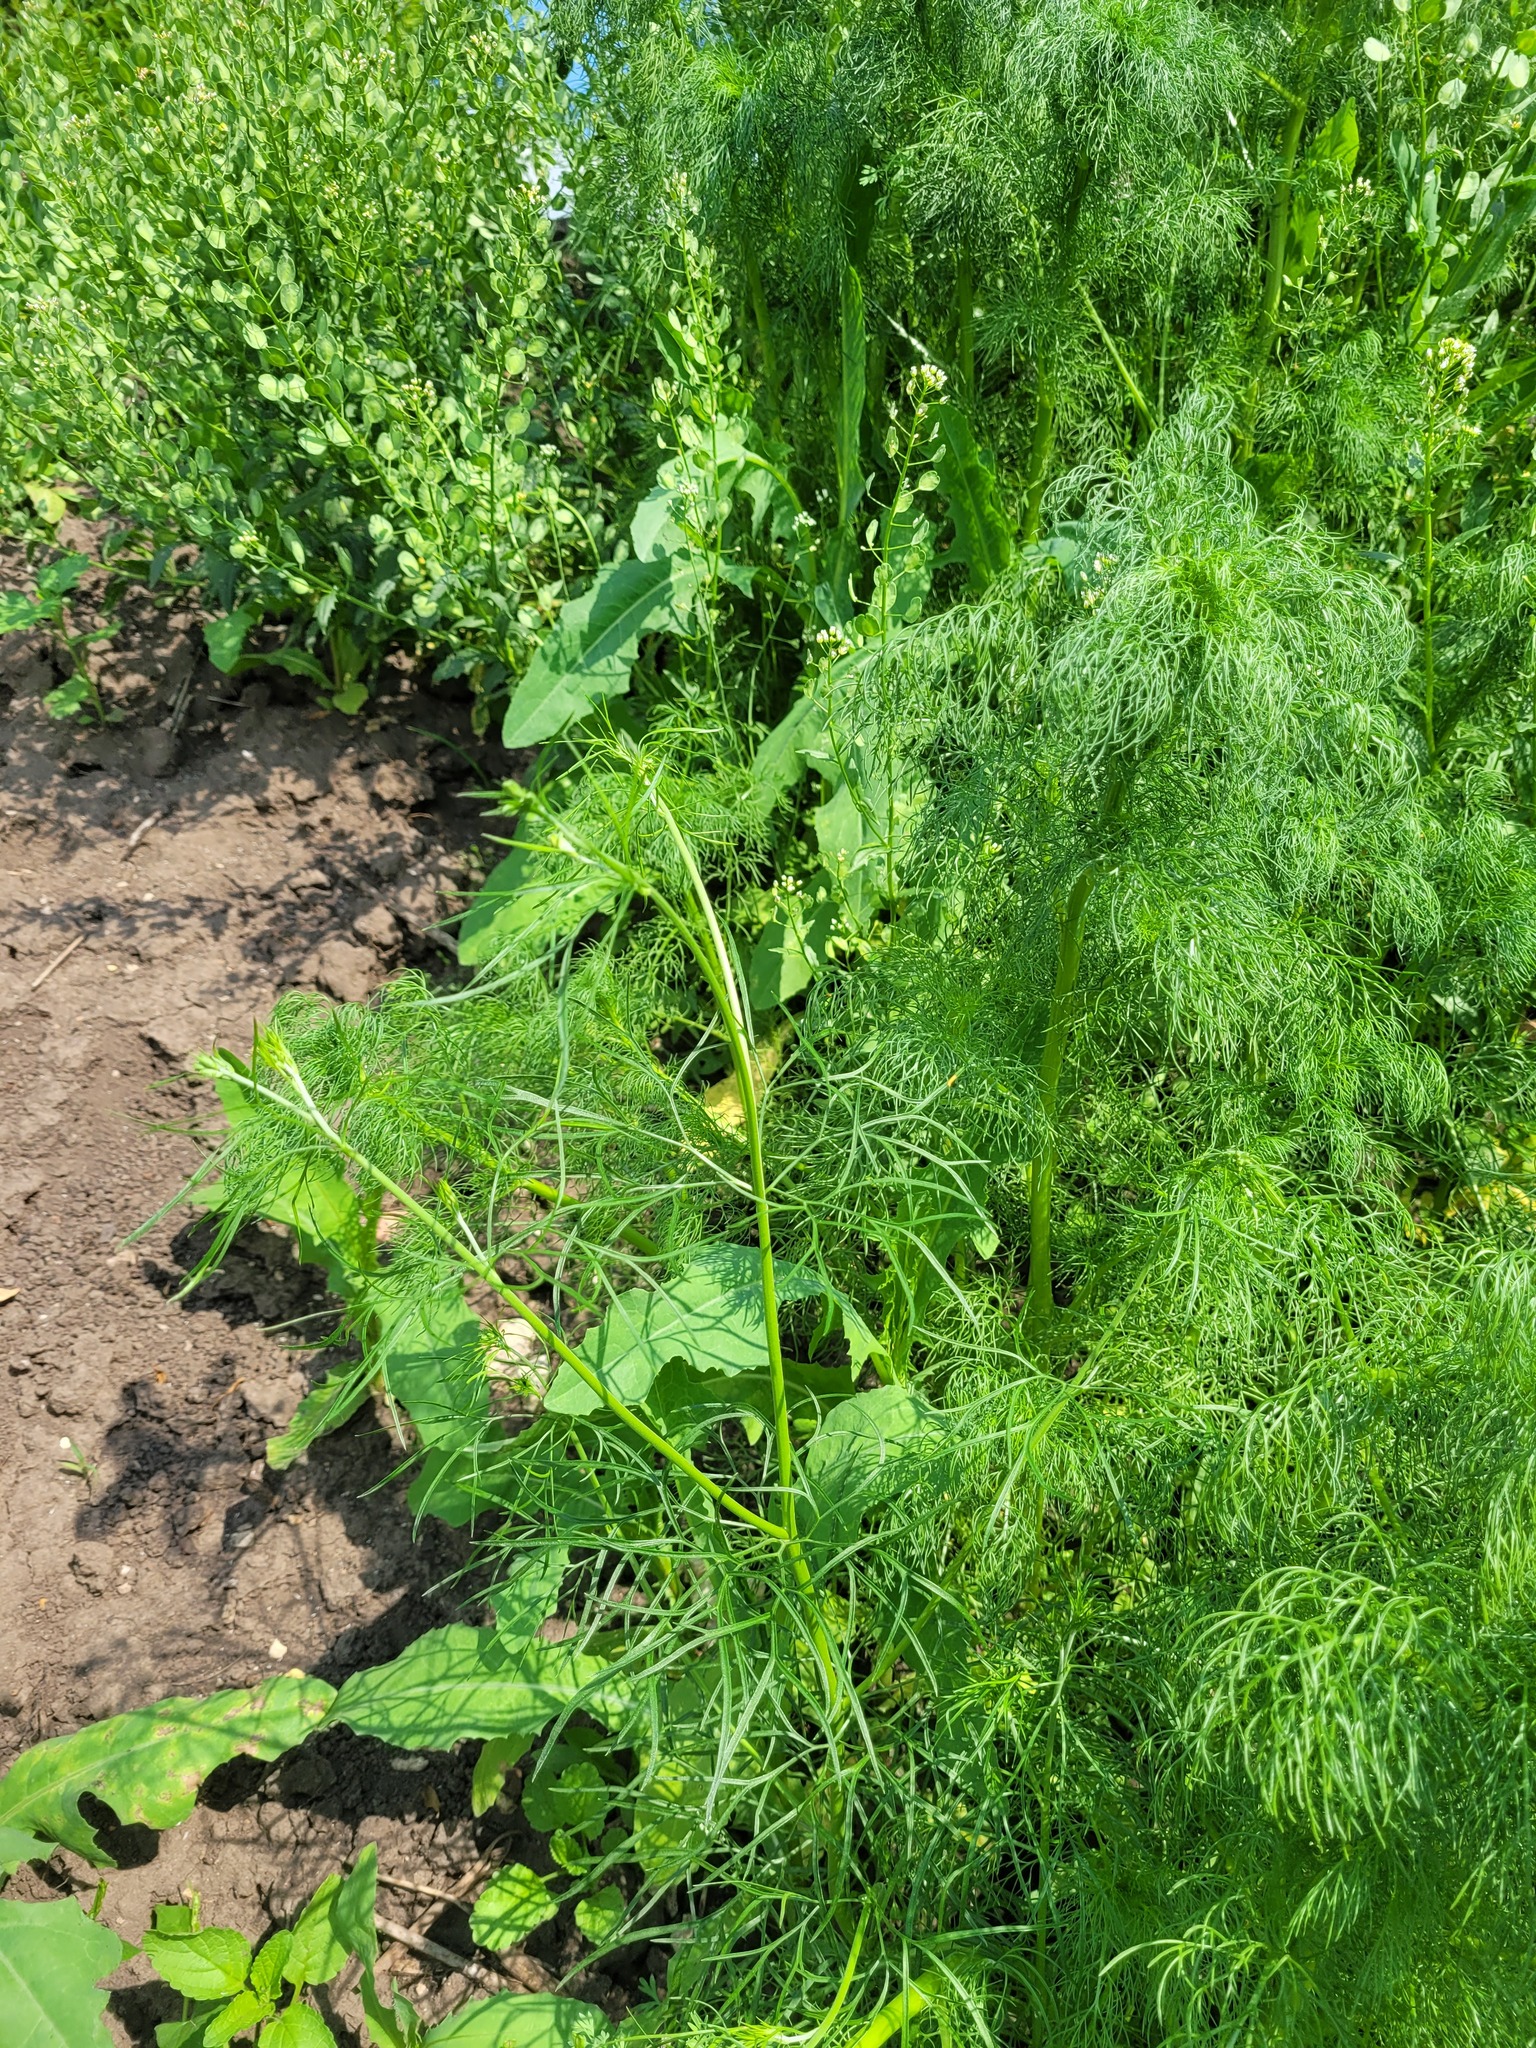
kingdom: Plantae
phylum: Tracheophyta
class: Magnoliopsida
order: Ranunculales
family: Ranunculaceae
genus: Delphinium
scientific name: Delphinium consolida
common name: Branching larkspur
